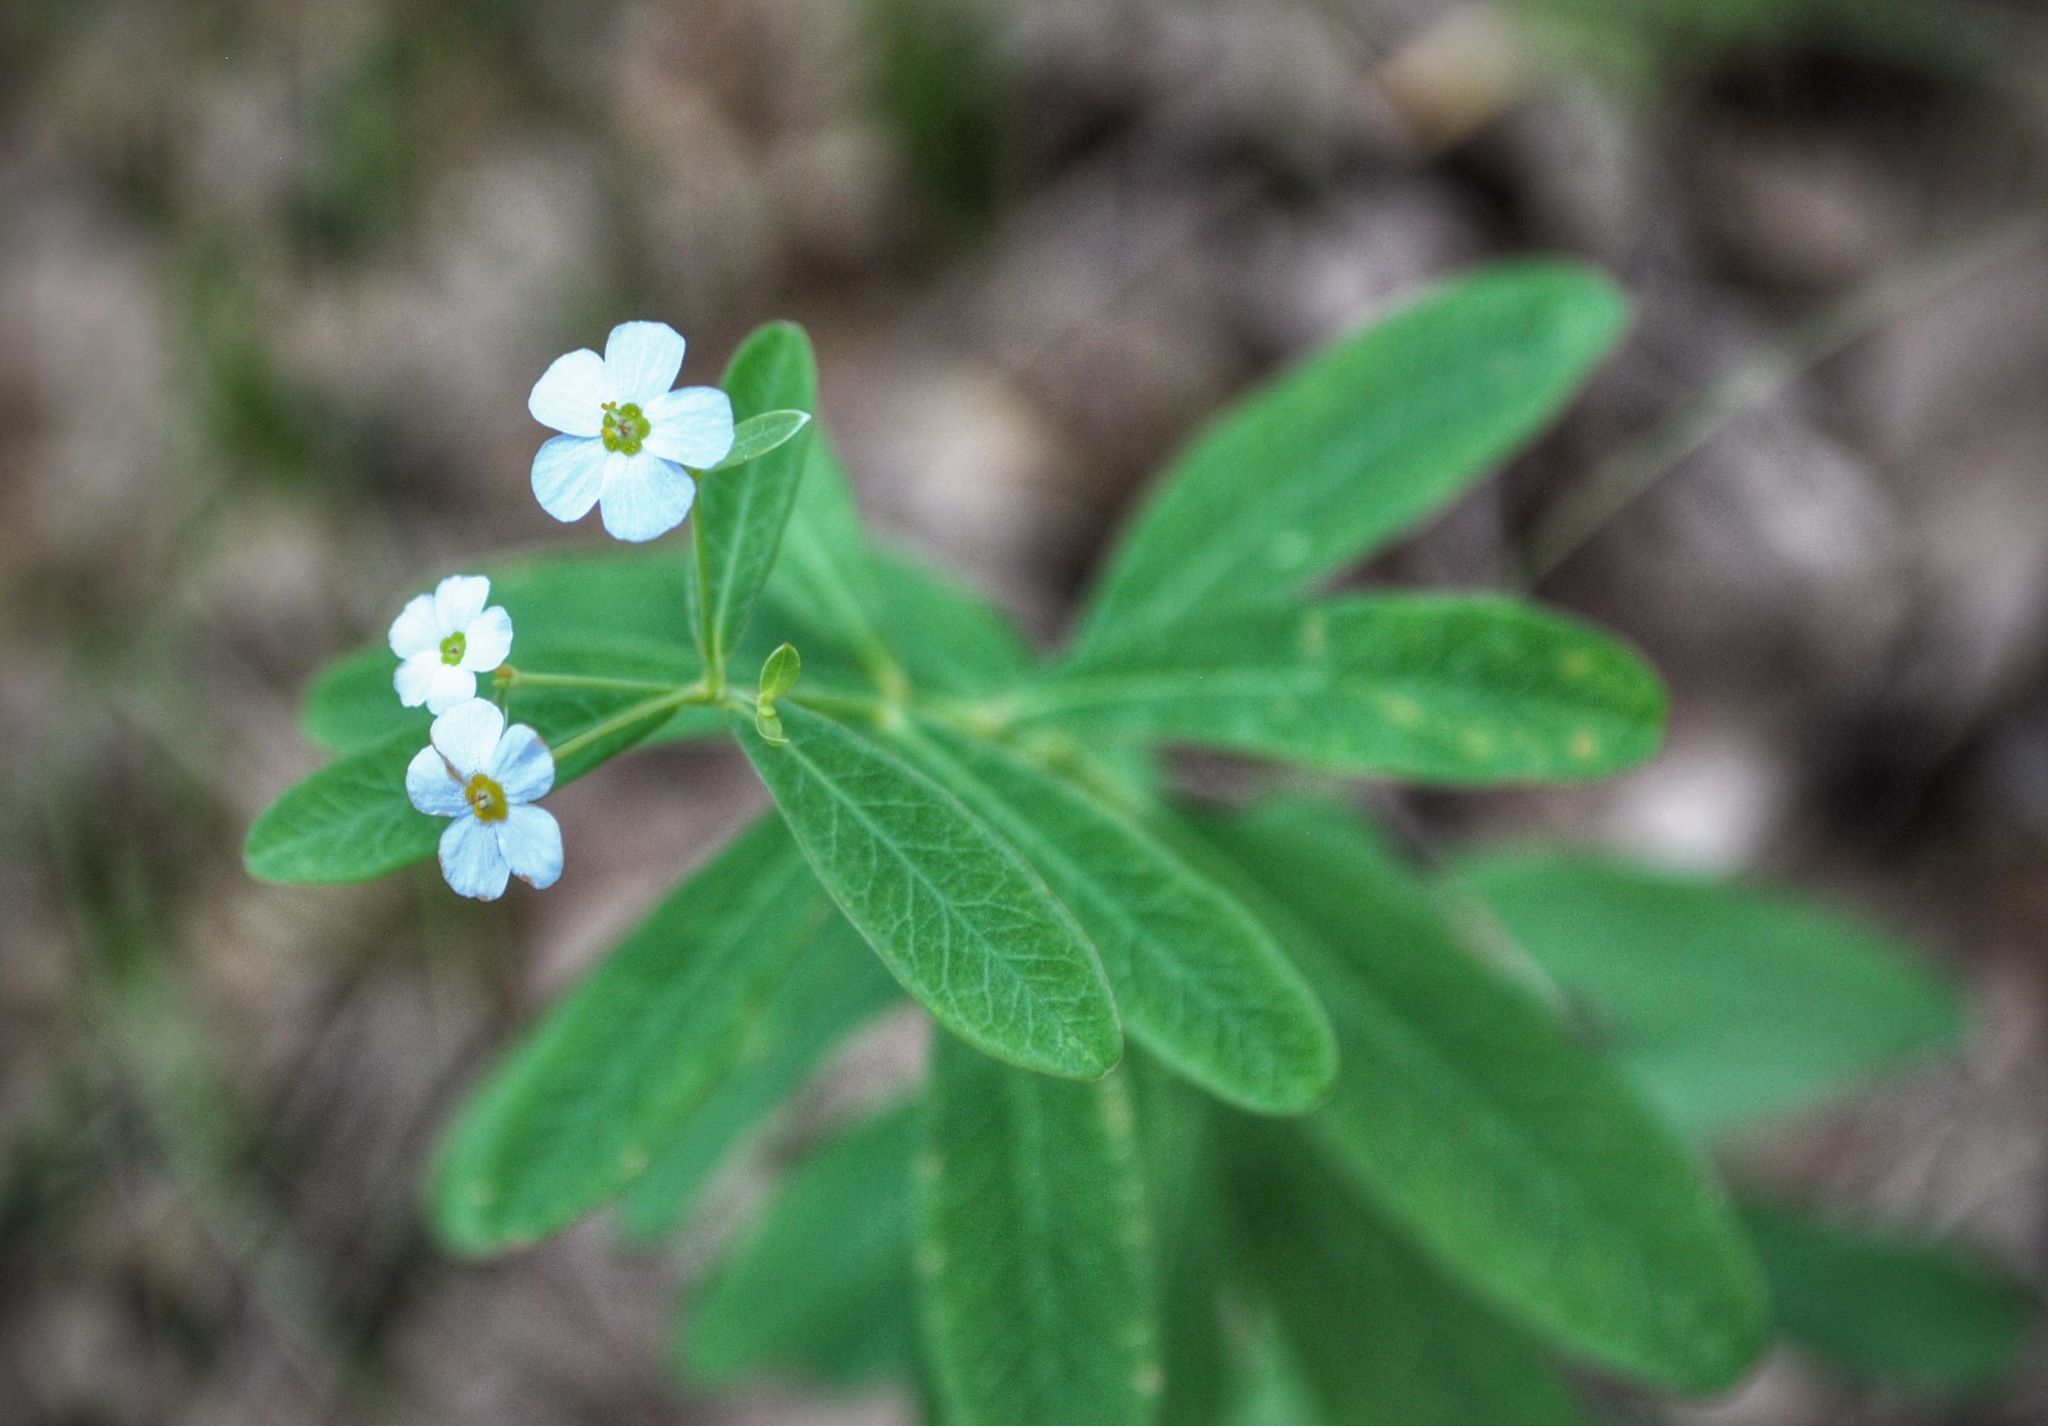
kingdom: Plantae
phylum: Tracheophyta
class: Magnoliopsida
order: Malpighiales
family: Euphorbiaceae
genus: Euphorbia
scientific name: Euphorbia corollata
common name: Flowering spurge
